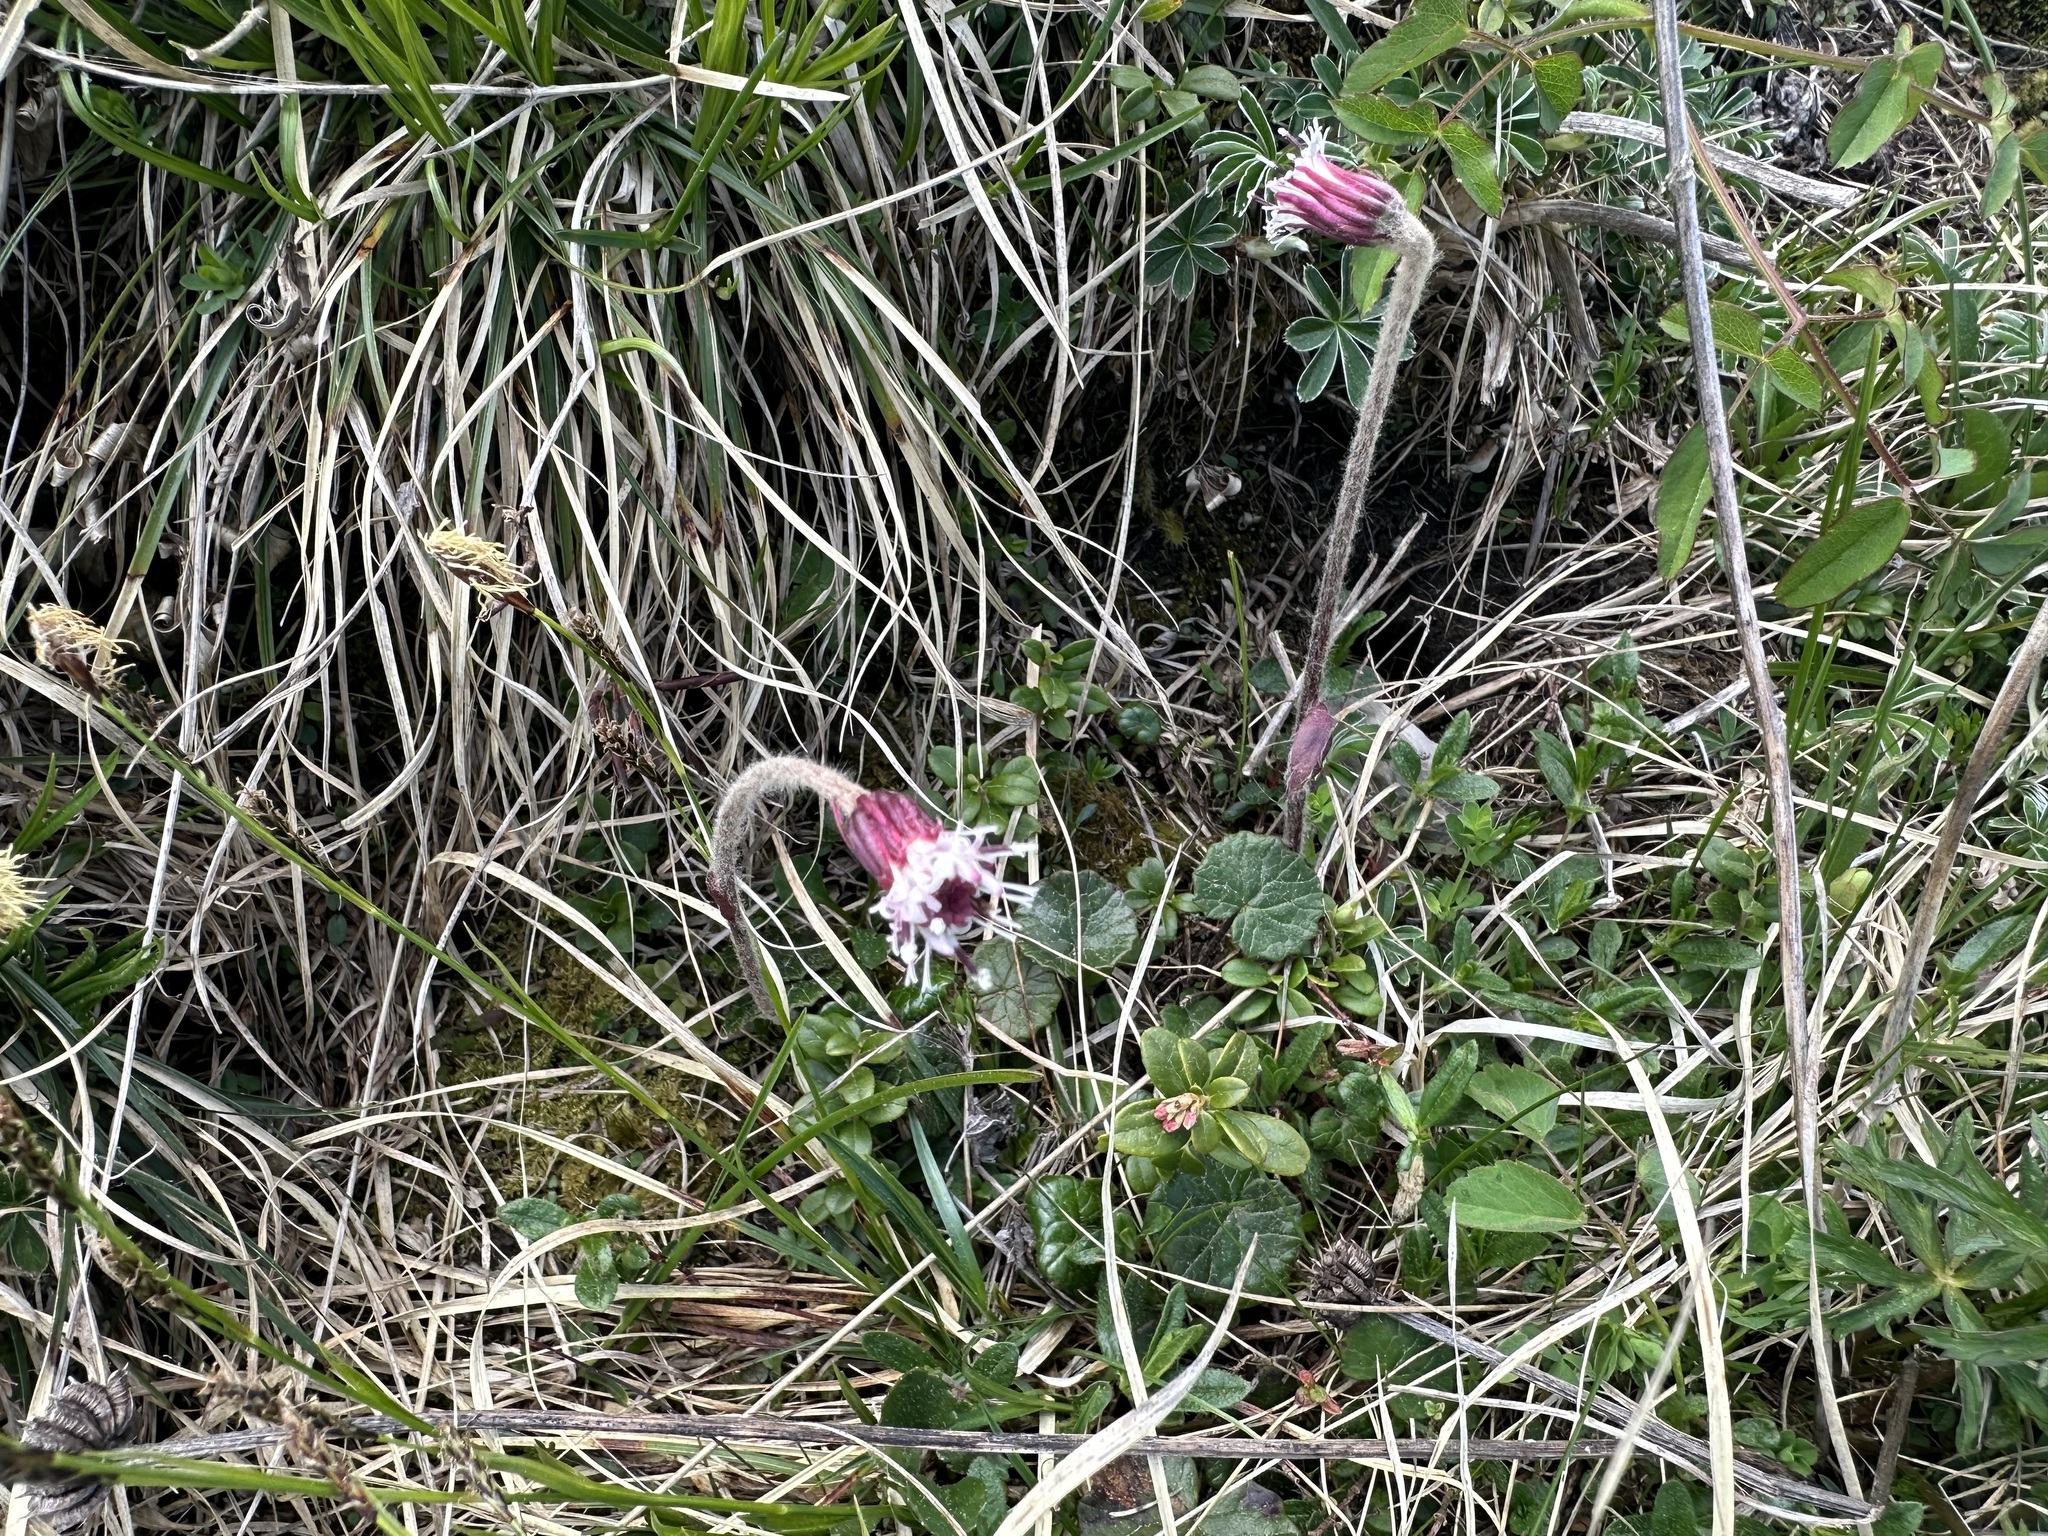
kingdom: Plantae
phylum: Tracheophyta
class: Magnoliopsida
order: Asterales
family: Asteraceae
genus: Homogyne
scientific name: Homogyne alpina
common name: Purple colt's-foot
